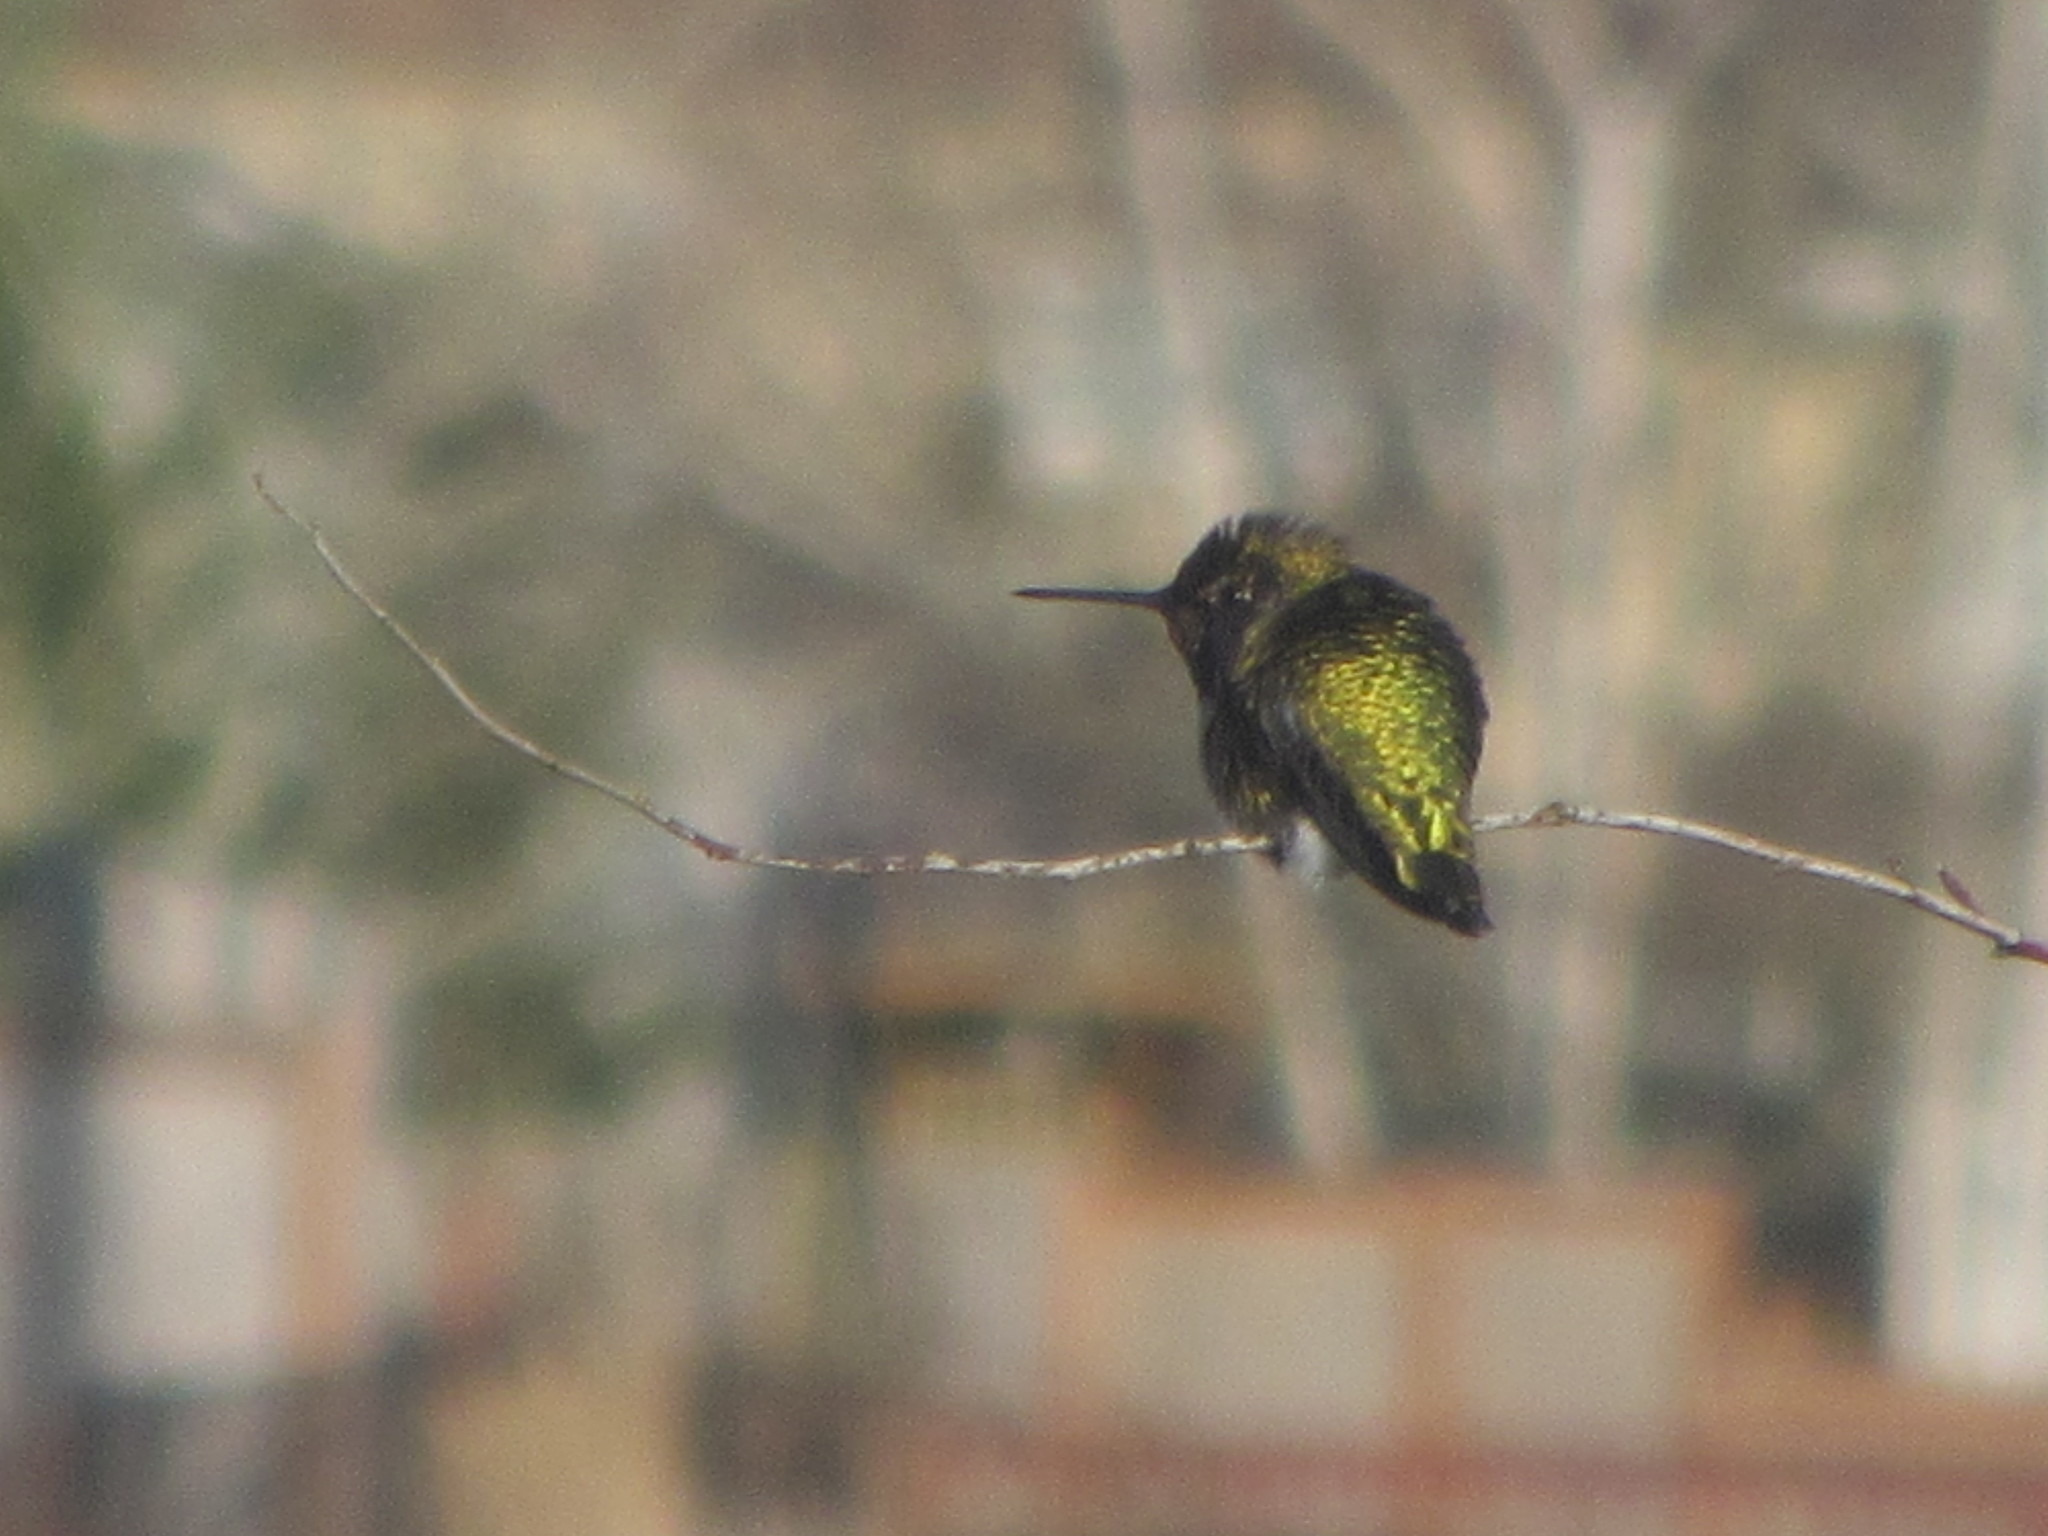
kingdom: Animalia
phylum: Chordata
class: Aves
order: Apodiformes
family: Trochilidae
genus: Calypte
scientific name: Calypte anna
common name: Anna's hummingbird
